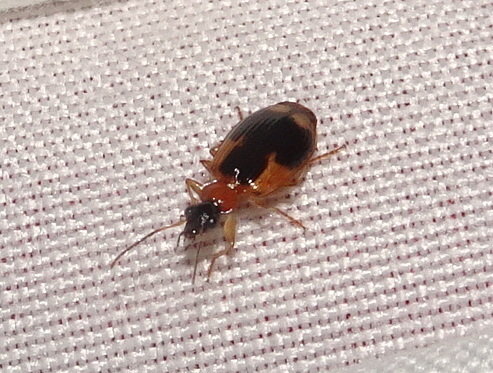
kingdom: Animalia
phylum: Arthropoda
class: Insecta
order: Coleoptera
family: Carabidae
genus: Lebia
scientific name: Lebia analis
